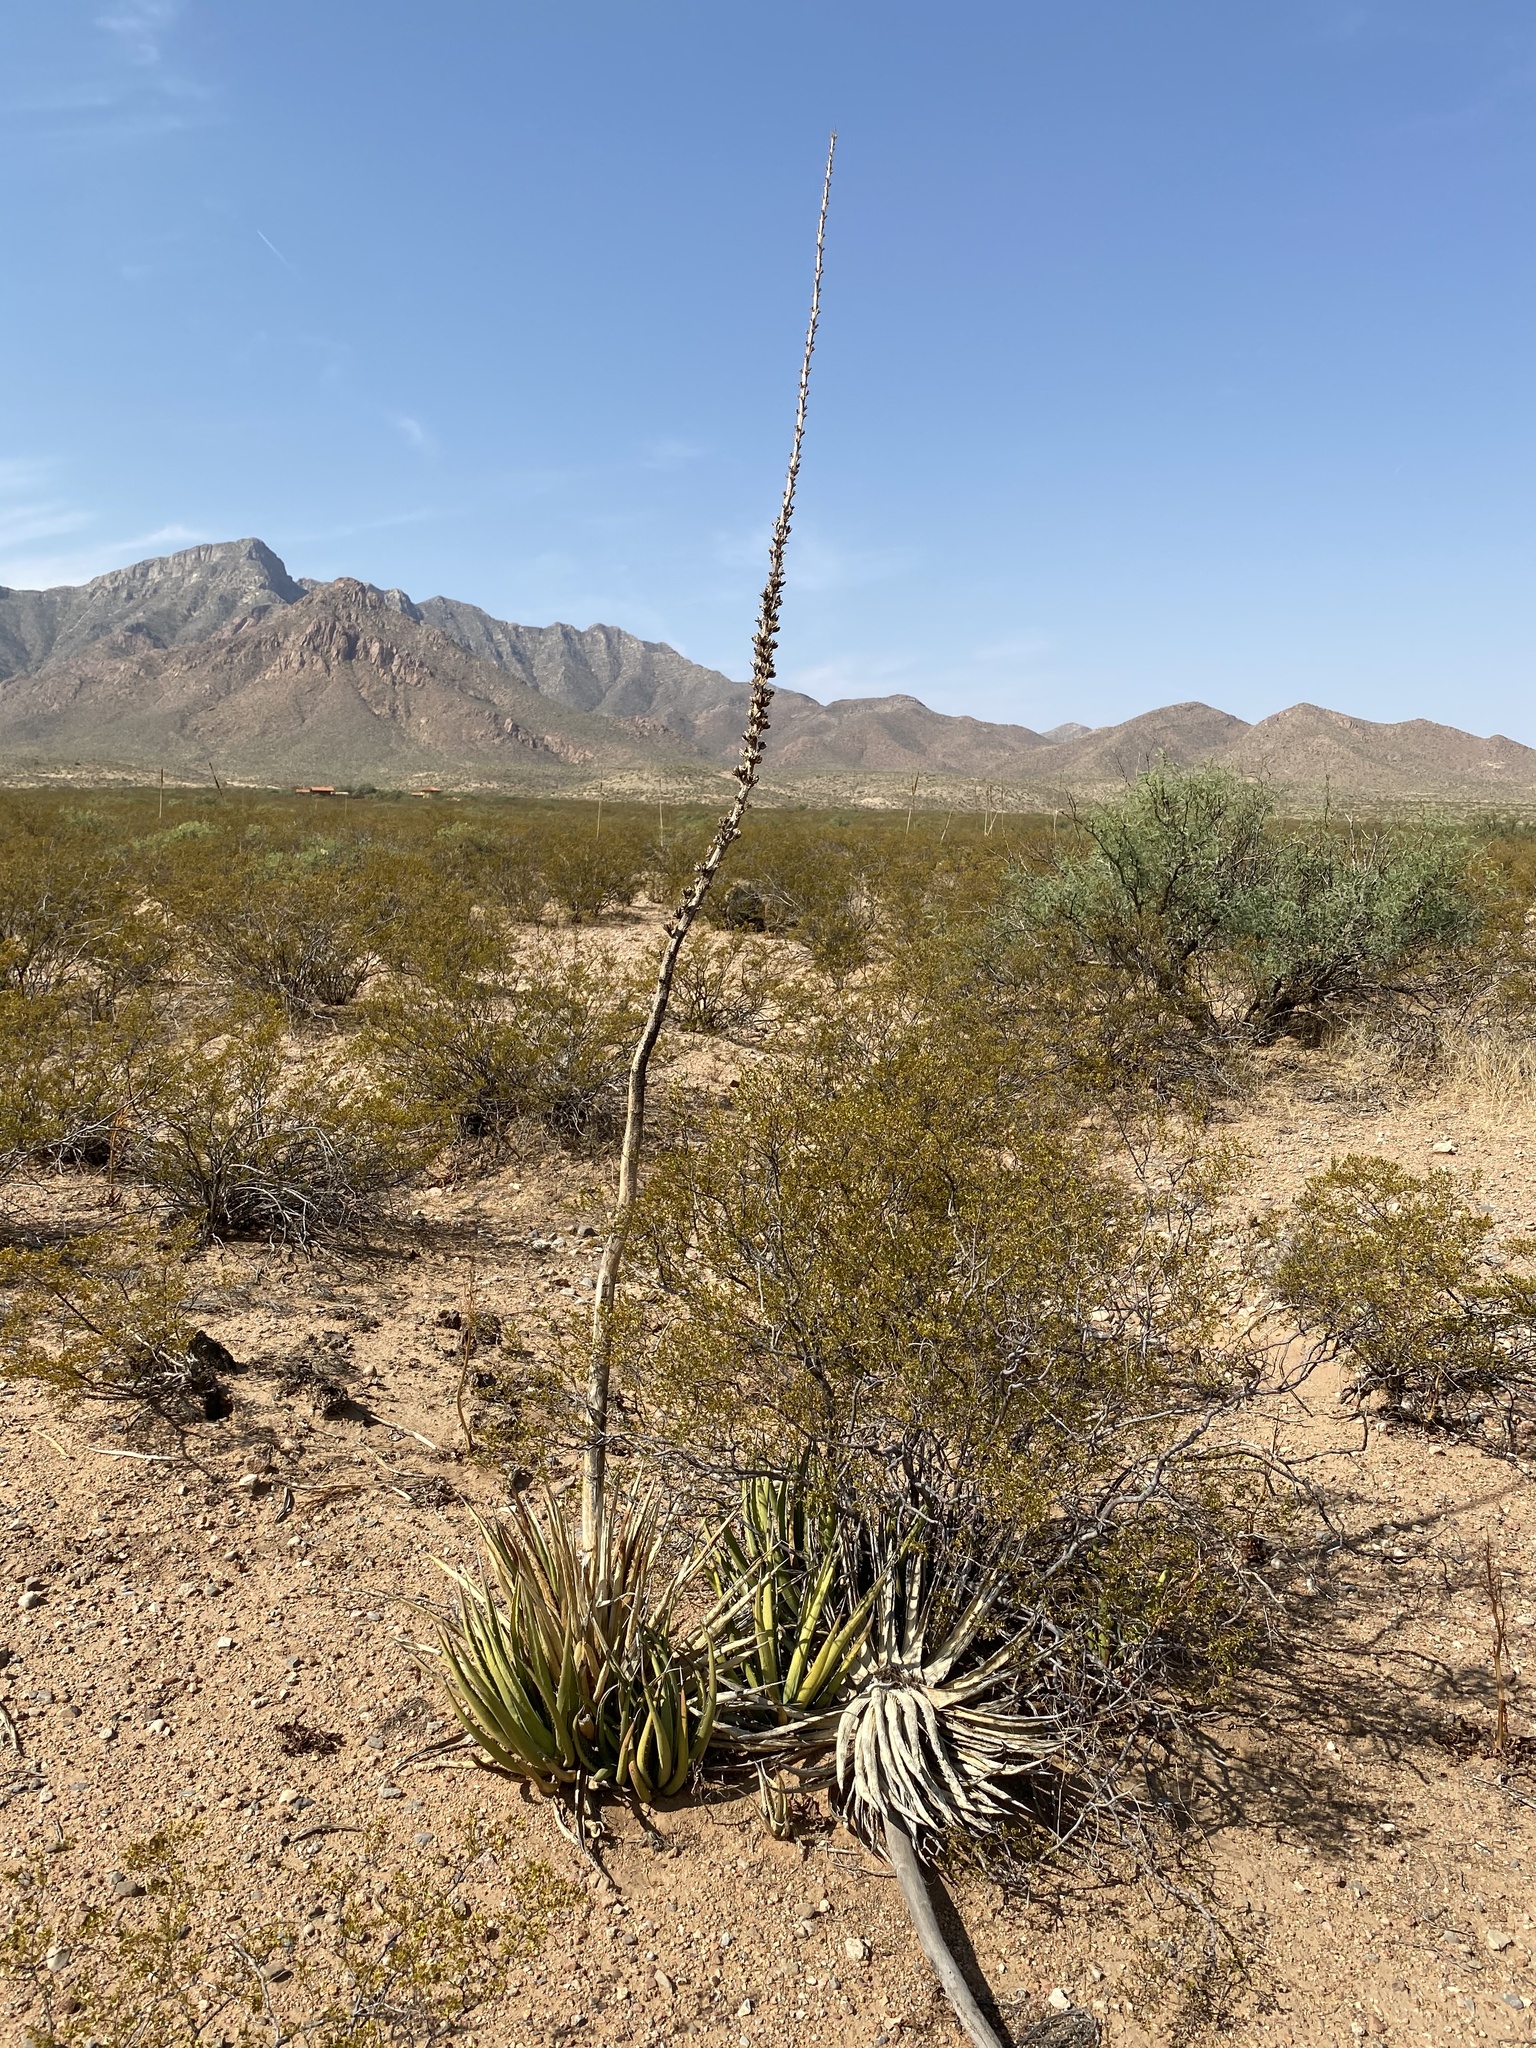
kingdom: Plantae
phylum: Tracheophyta
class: Liliopsida
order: Asparagales
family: Asparagaceae
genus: Agave
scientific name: Agave lechuguilla
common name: Lecheguilla agave
